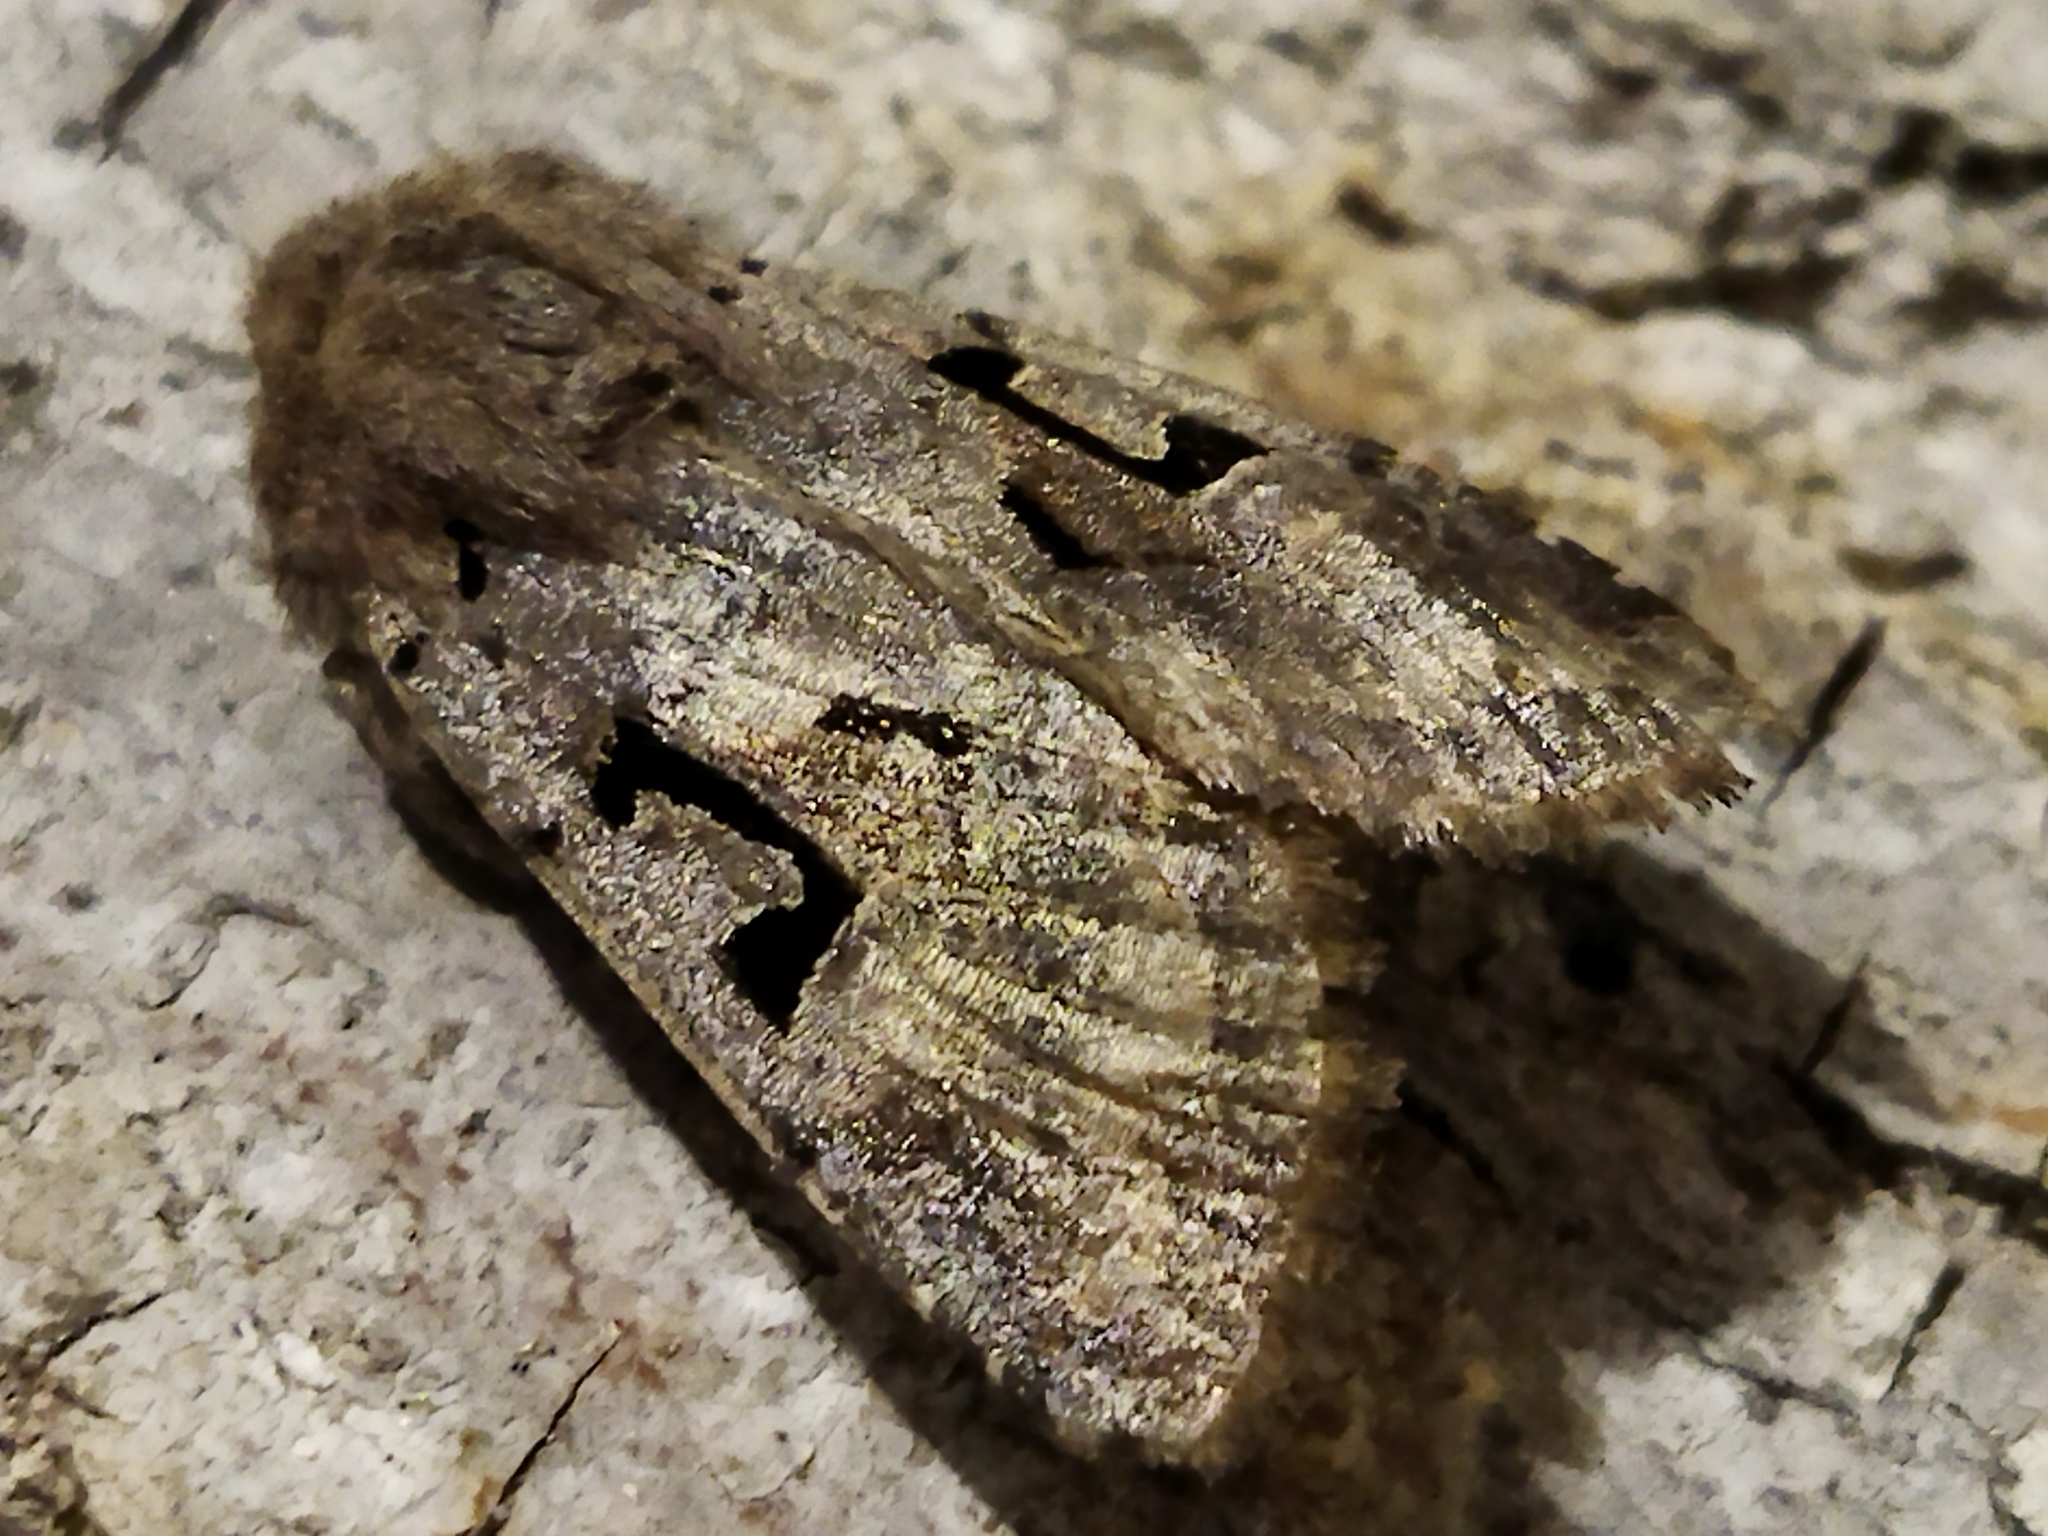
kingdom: Animalia
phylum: Arthropoda
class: Insecta
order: Lepidoptera
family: Noctuidae
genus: Orthosia
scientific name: Orthosia gothica
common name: Hebrew character
